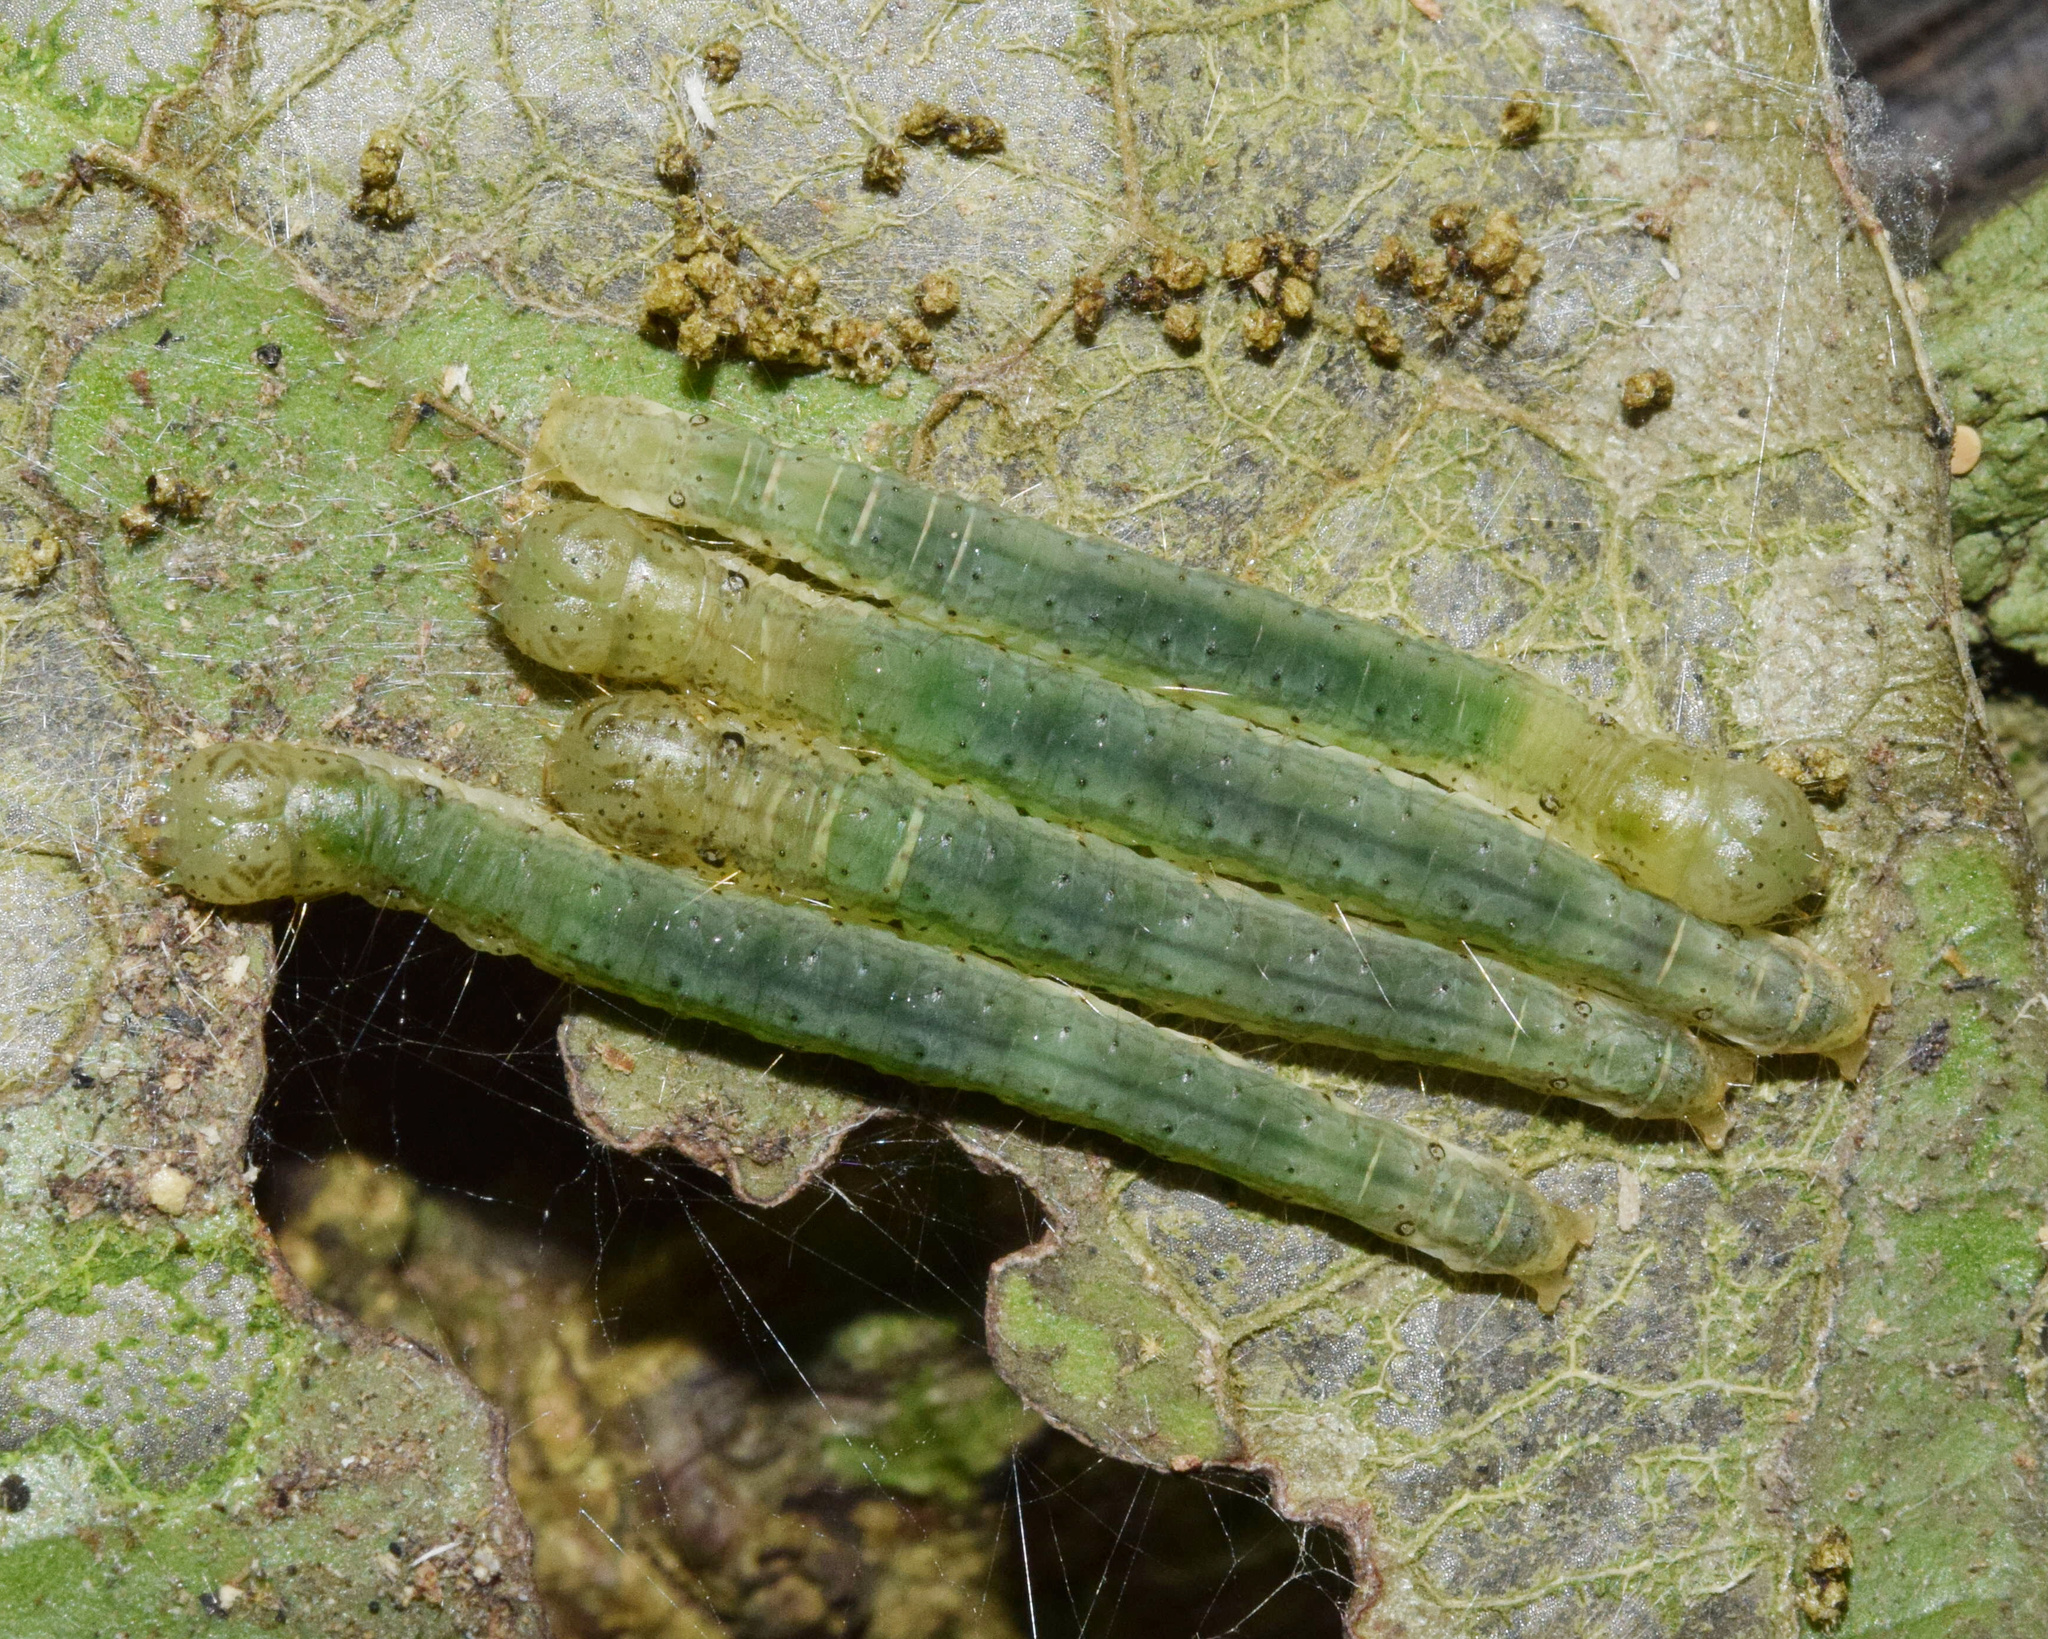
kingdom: Animalia
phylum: Arthropoda
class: Insecta
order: Lepidoptera
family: Pyralidae
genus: Acrobasis
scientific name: Acrobasis
